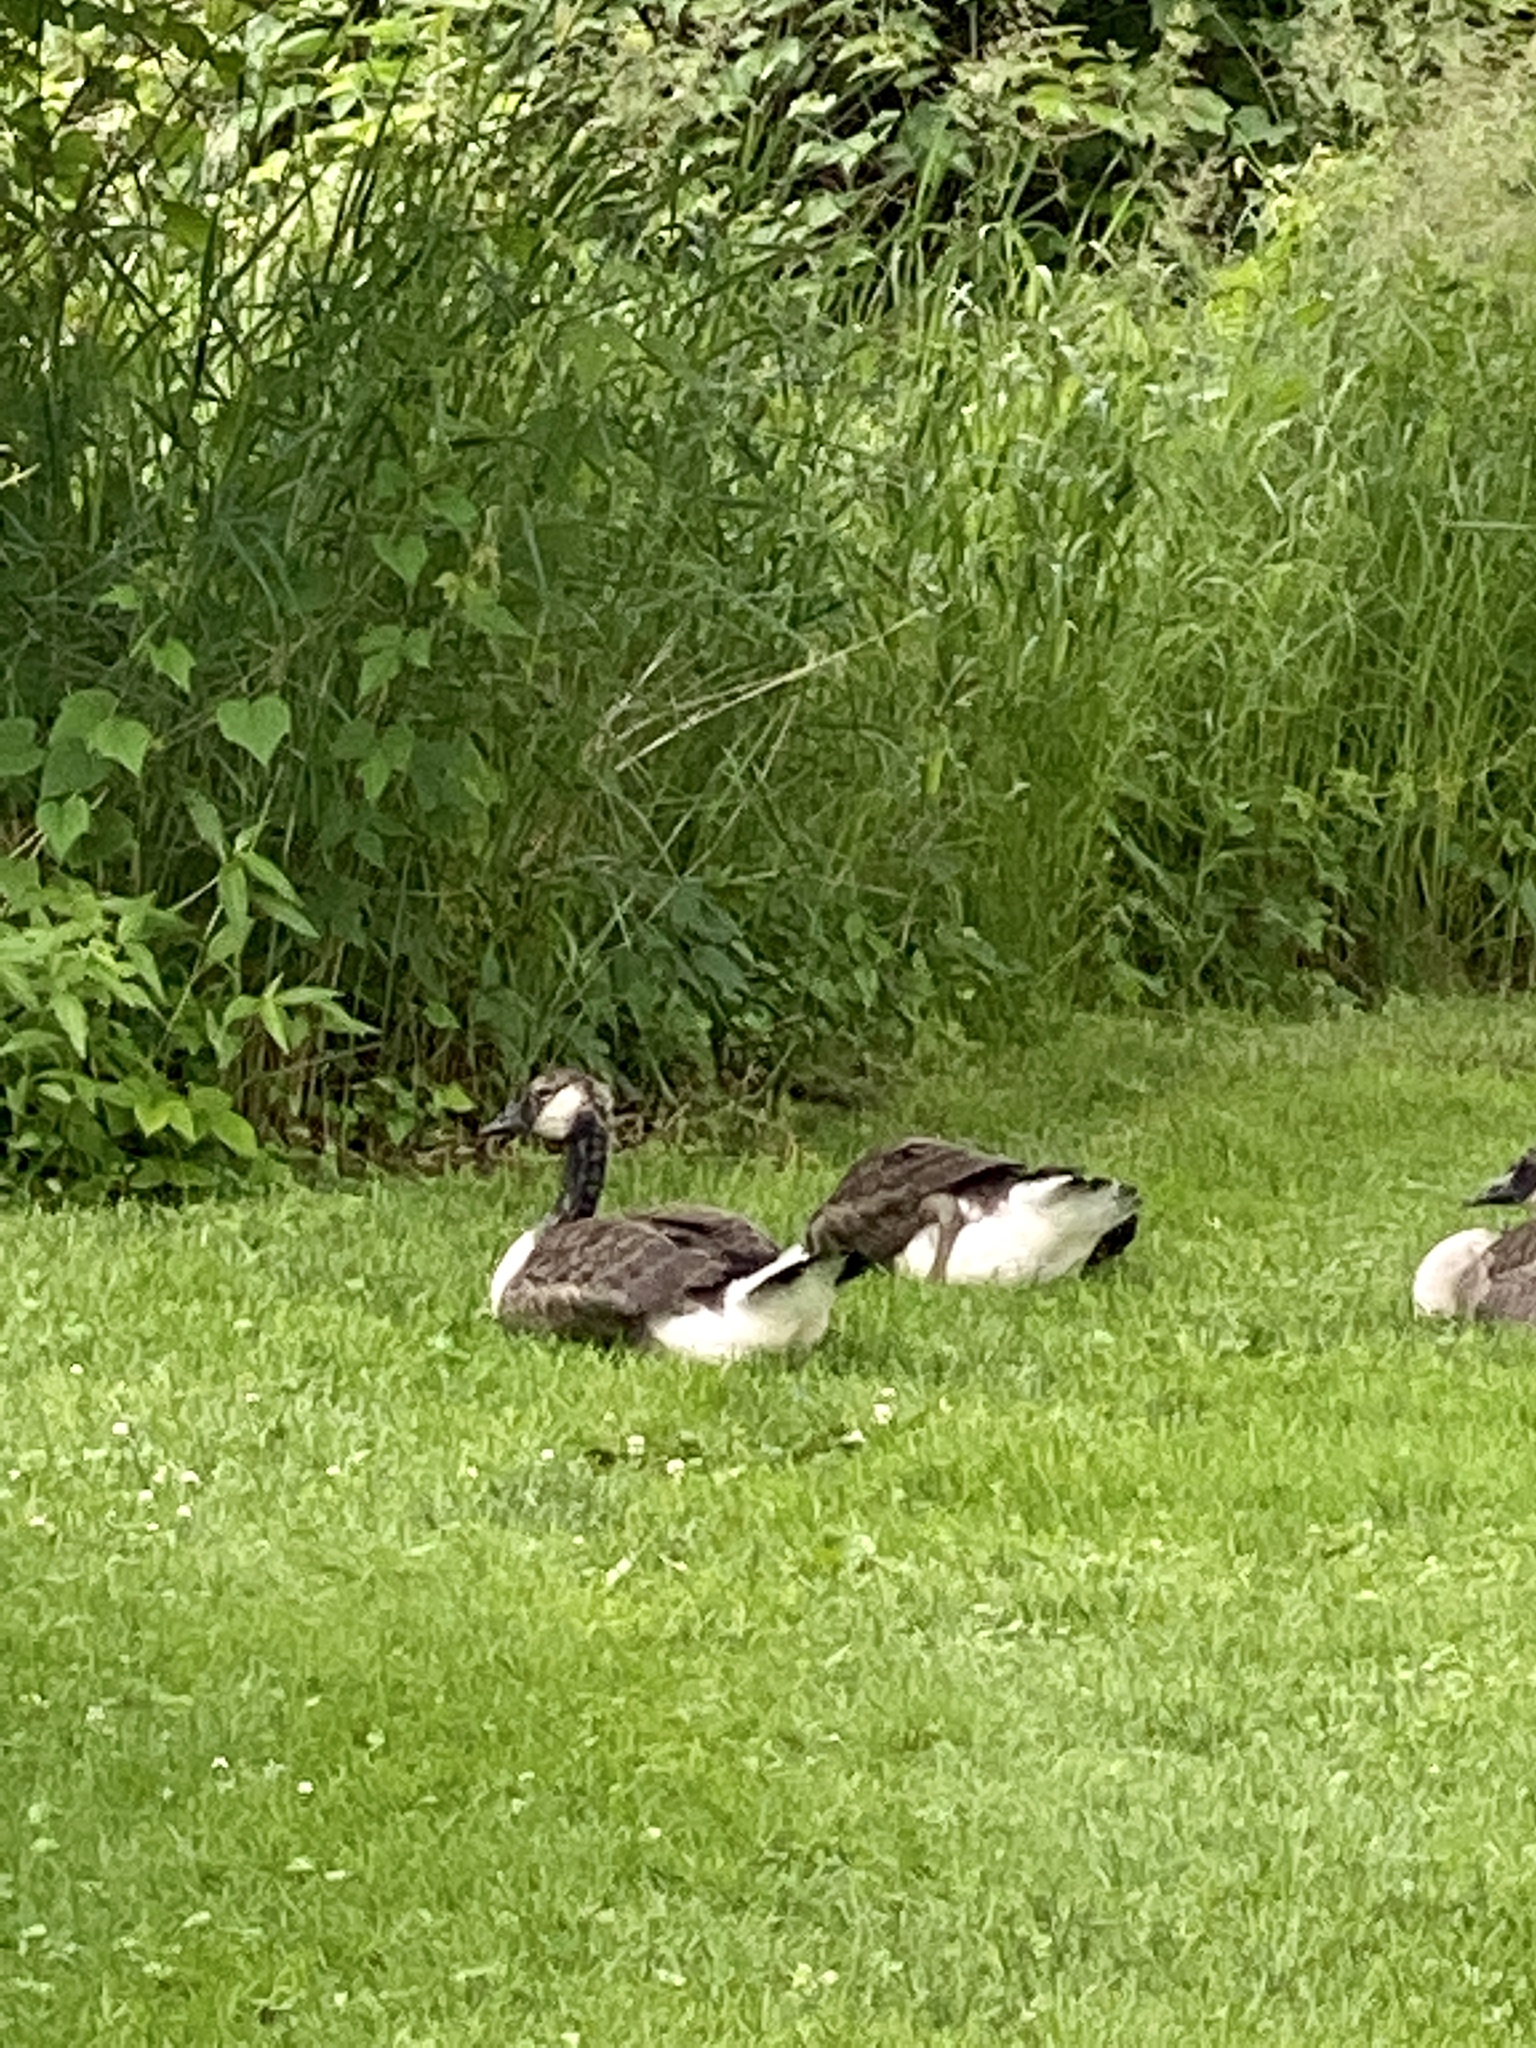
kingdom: Animalia
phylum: Chordata
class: Aves
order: Anseriformes
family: Anatidae
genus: Branta
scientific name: Branta canadensis
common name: Canada goose
